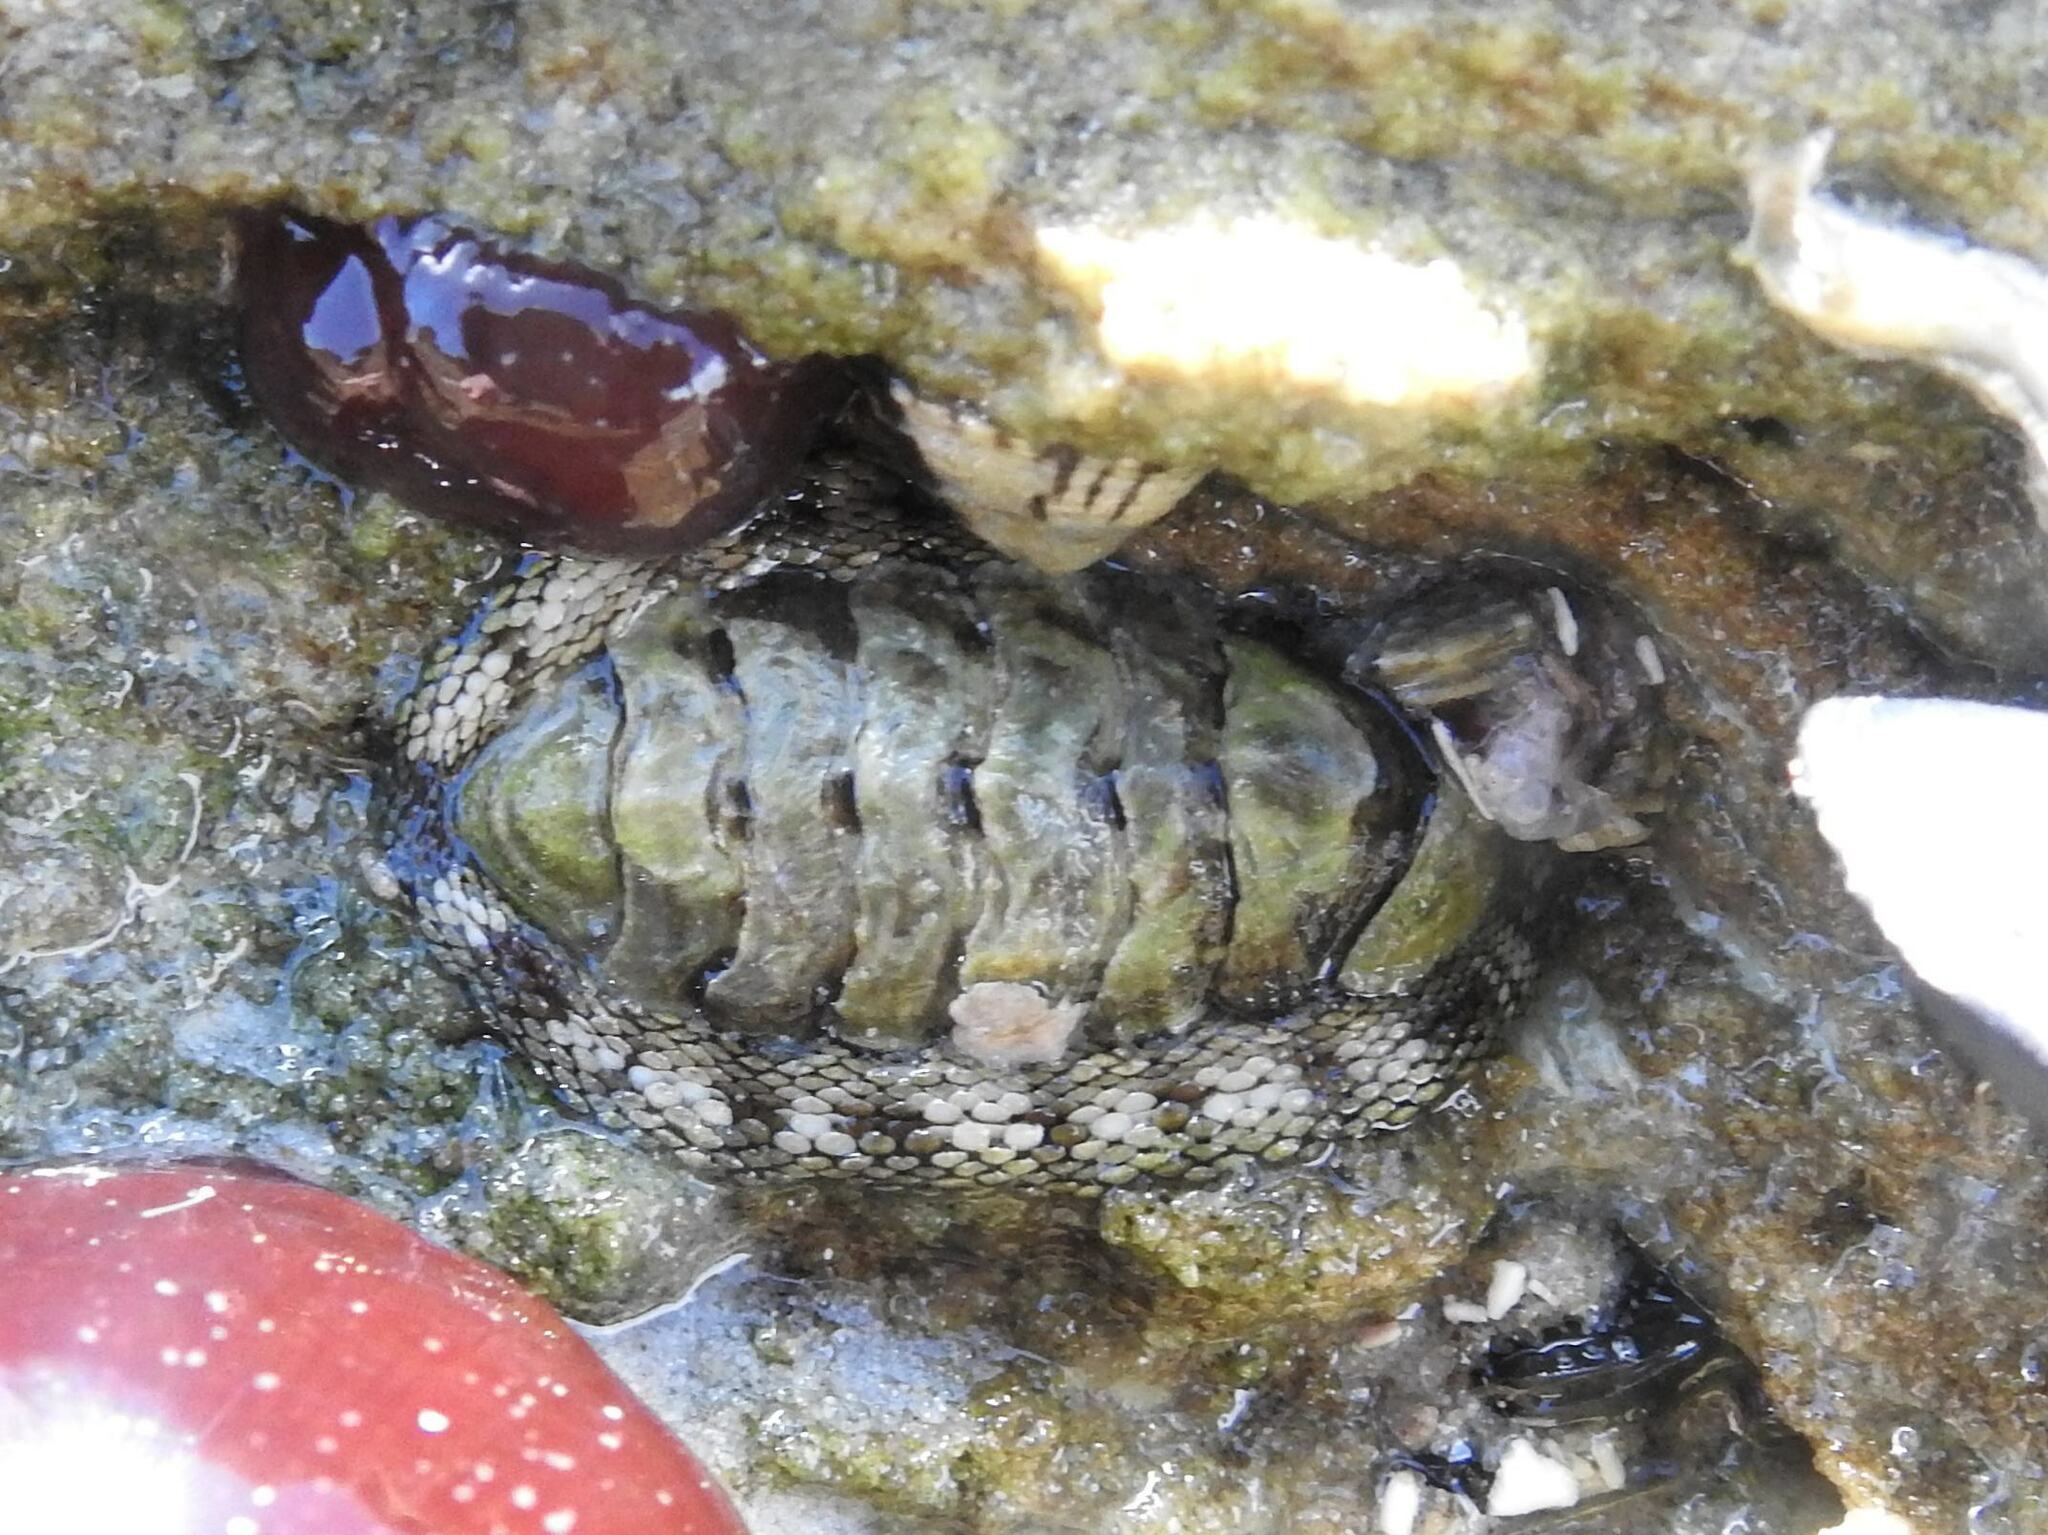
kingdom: Animalia
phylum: Mollusca
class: Polyplacophora
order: Chitonida
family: Chitonidae
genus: Sypharochiton
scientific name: Sypharochiton pelliserpentis
